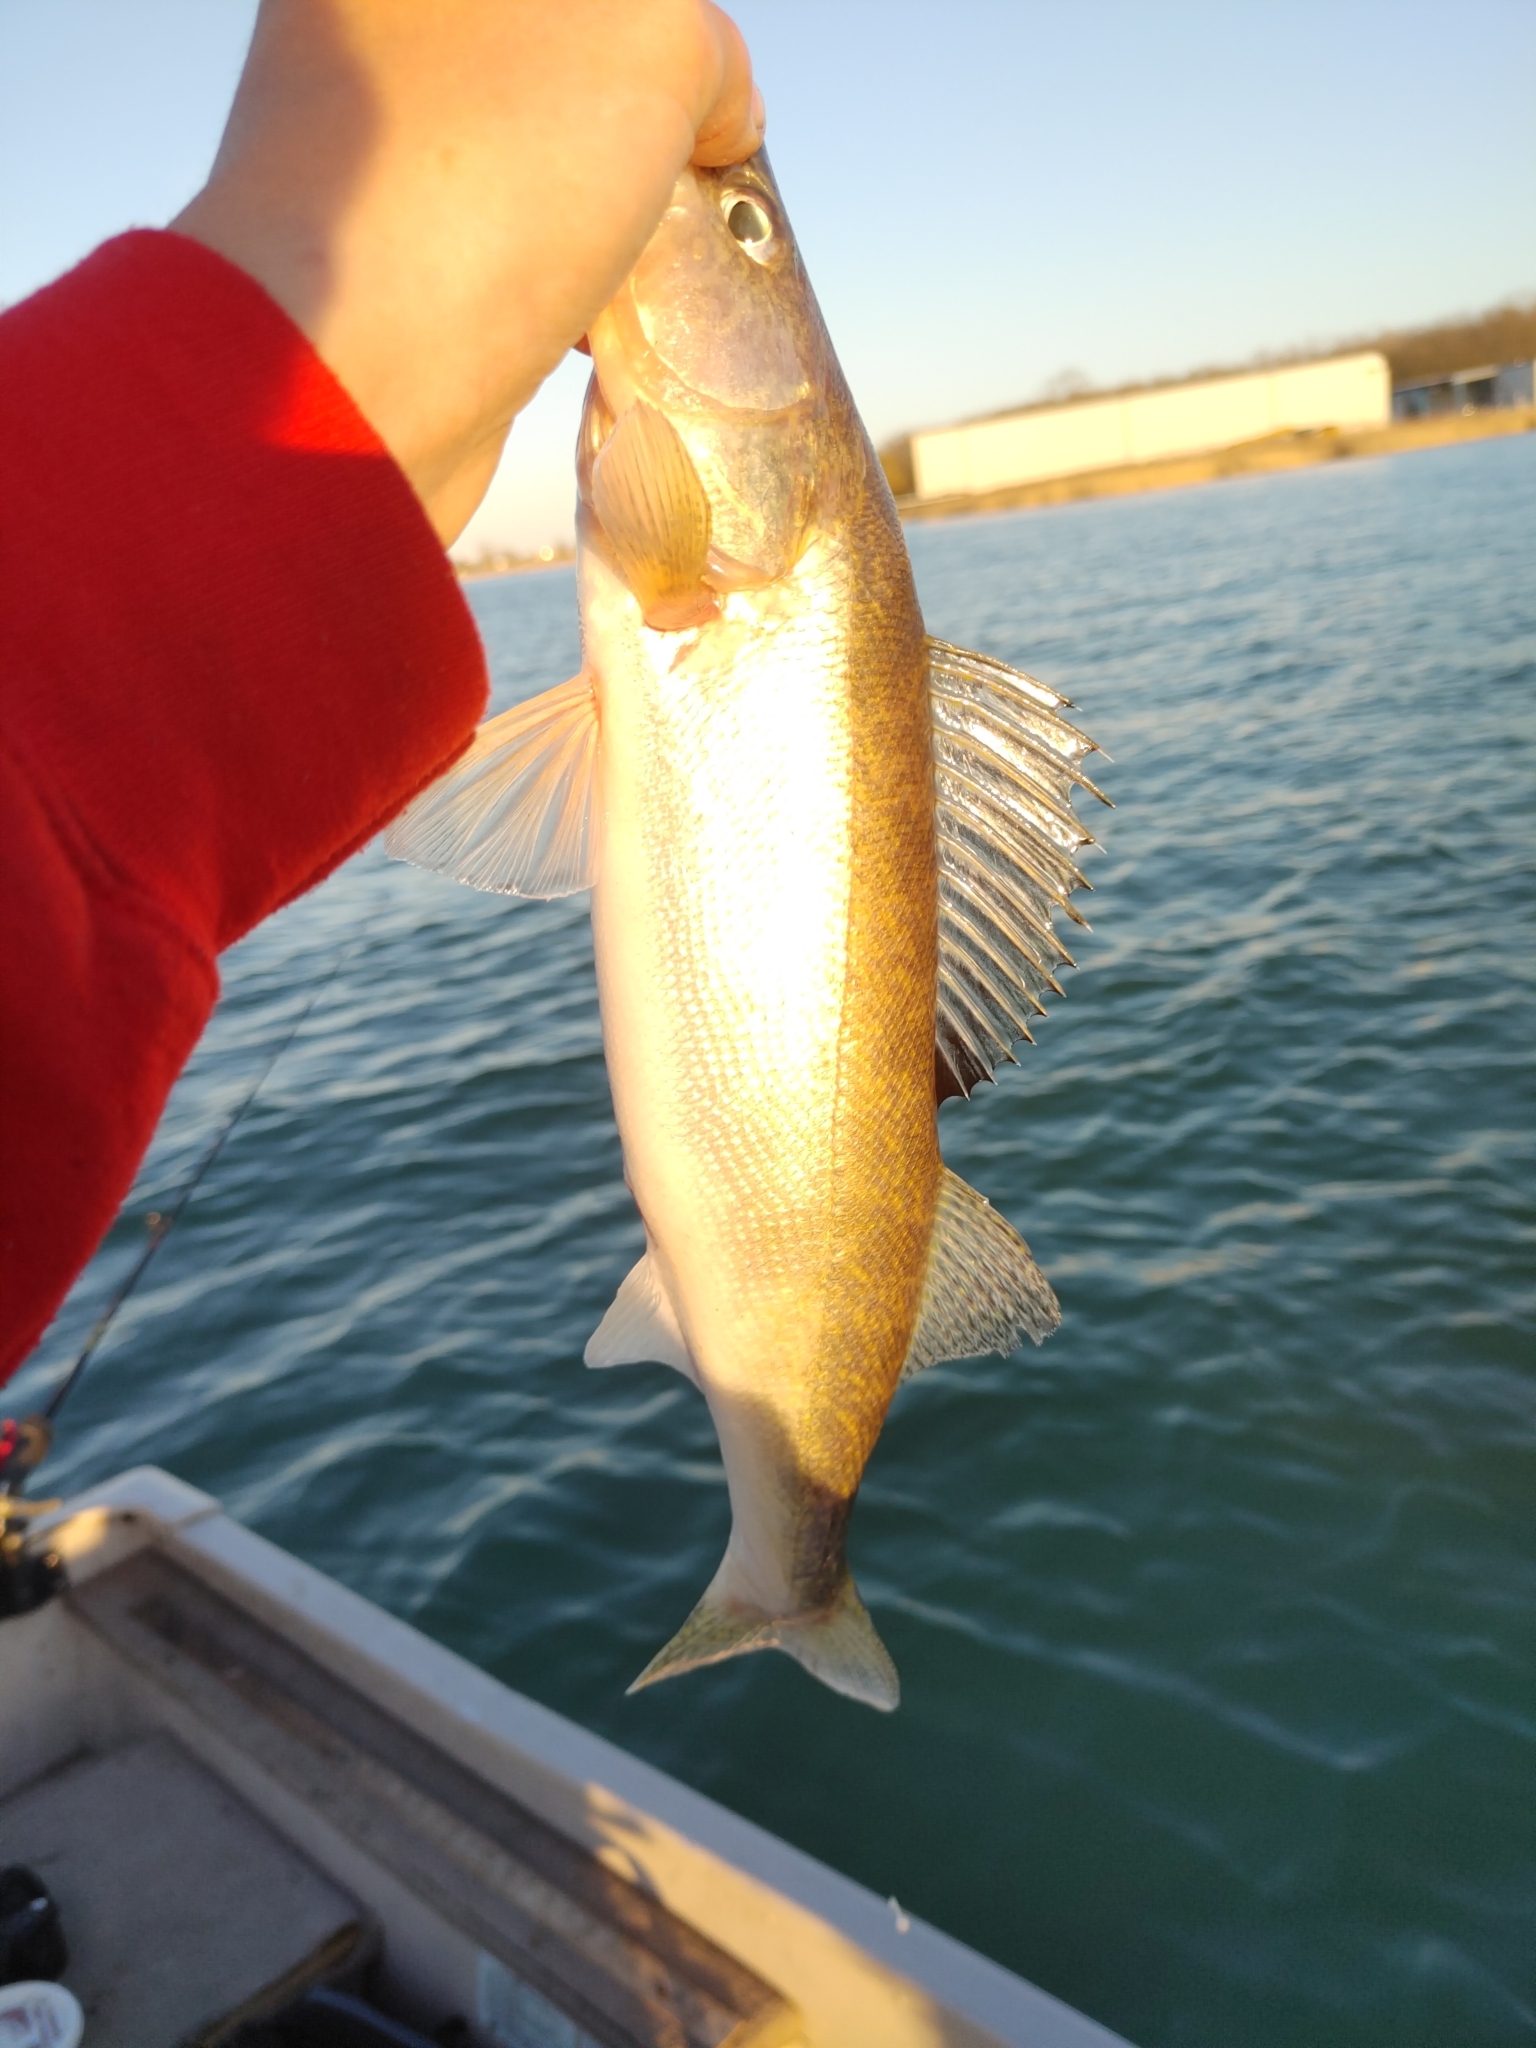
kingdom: Animalia
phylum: Chordata
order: Perciformes
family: Percidae
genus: Sander
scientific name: Sander vitreus
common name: Walleye
